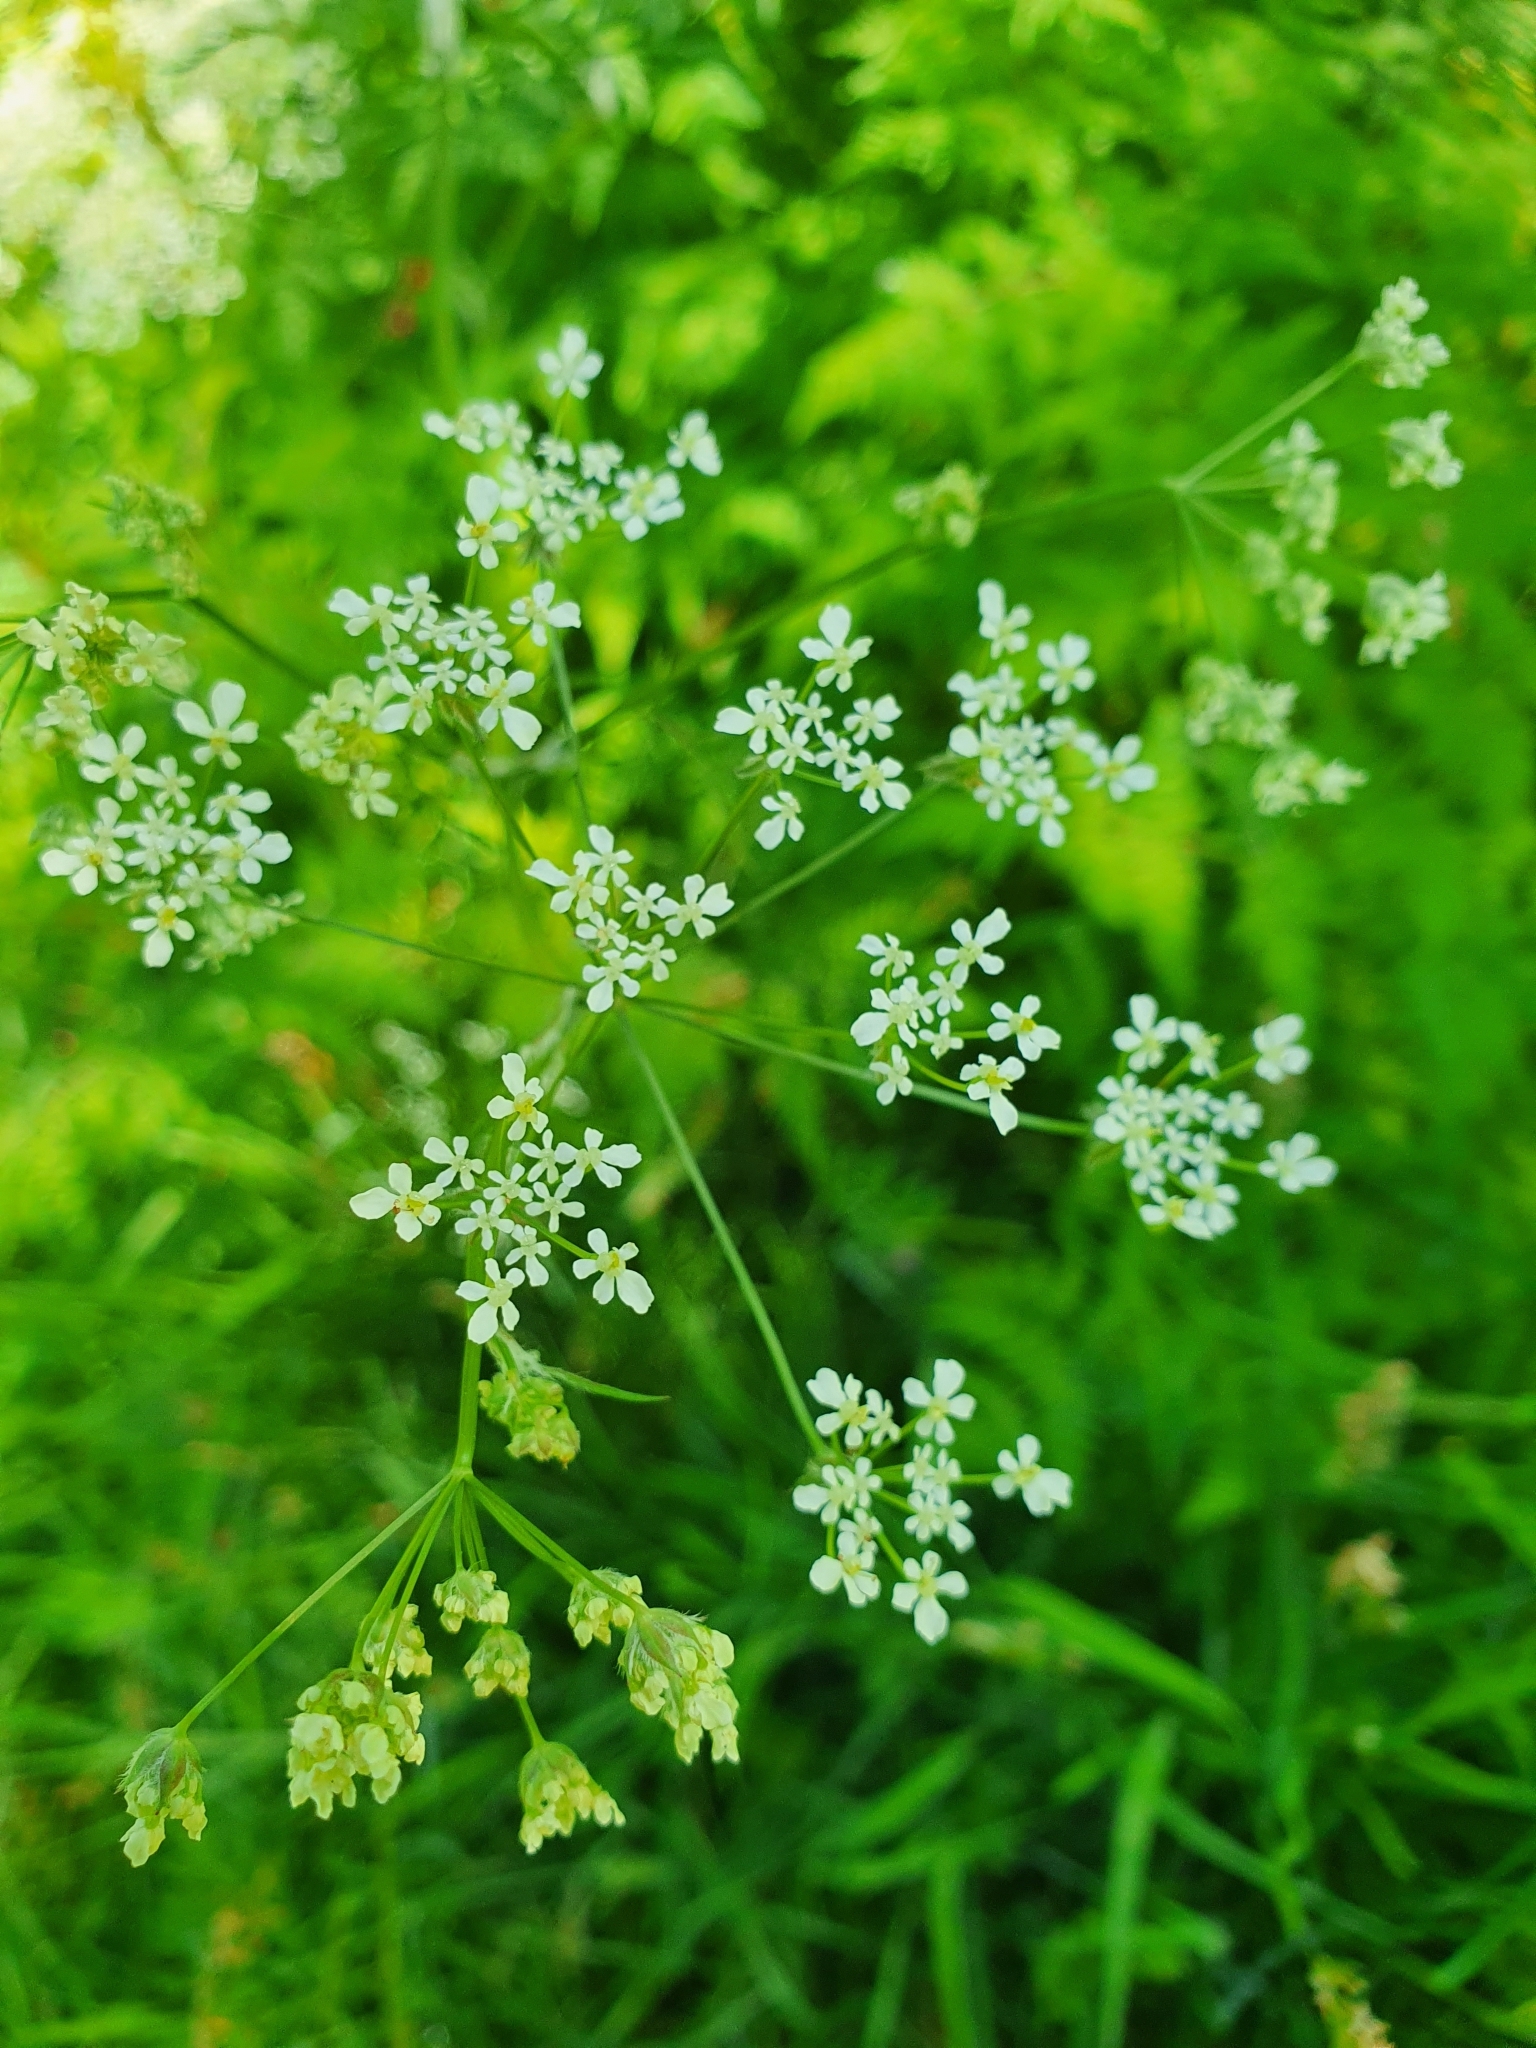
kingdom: Plantae
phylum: Tracheophyta
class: Magnoliopsida
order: Apiales
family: Apiaceae
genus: Anthriscus
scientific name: Anthriscus sylvestris
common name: Cow parsley
